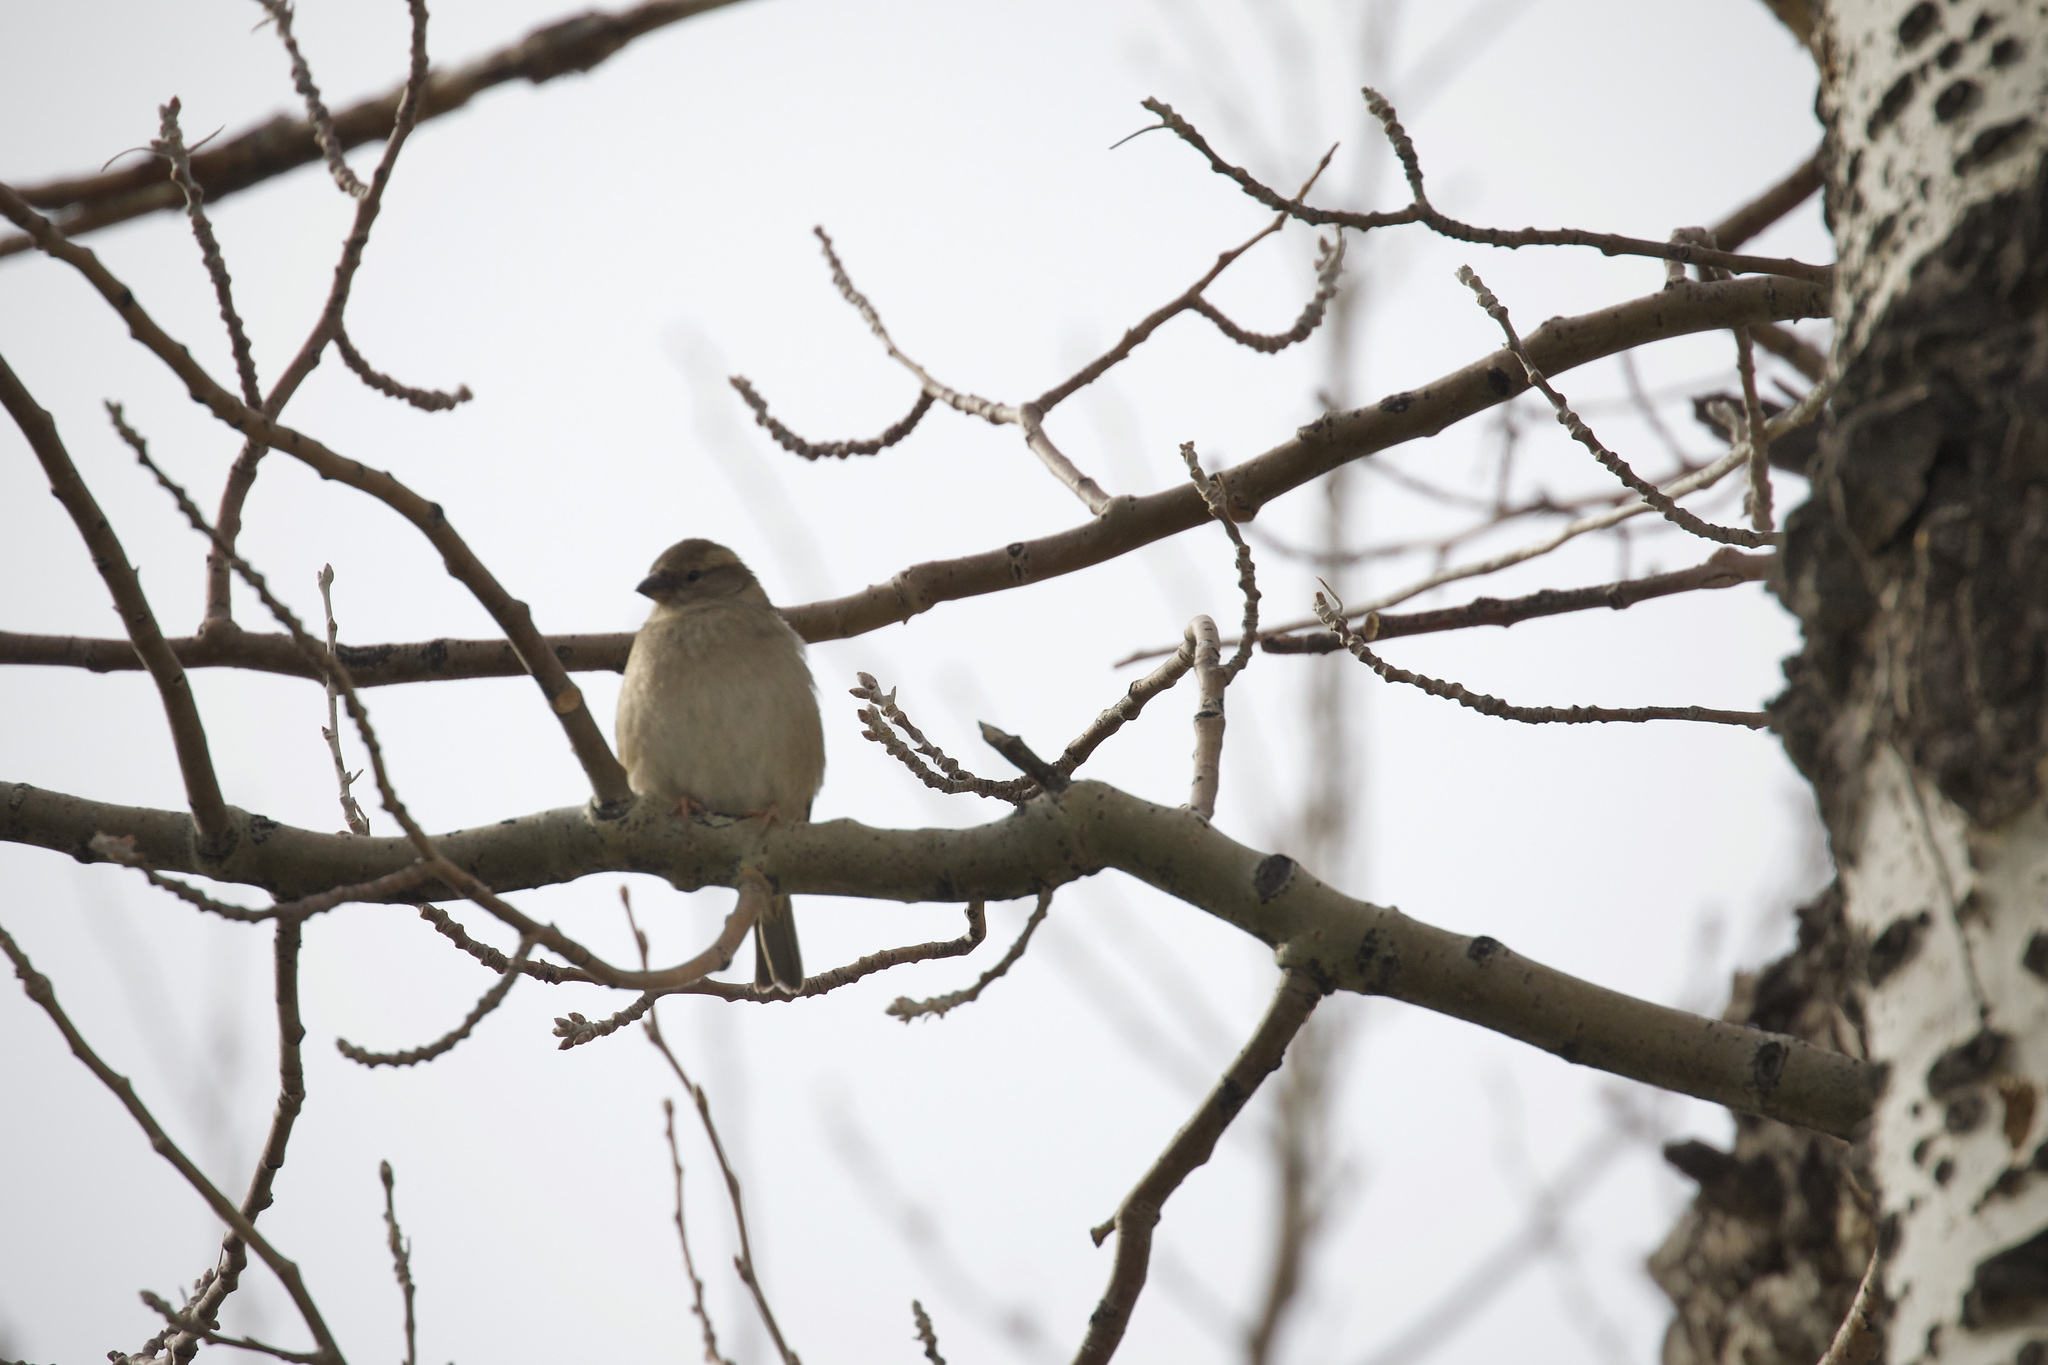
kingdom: Animalia
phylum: Chordata
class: Aves
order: Passeriformes
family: Passeridae
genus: Passer
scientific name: Passer domesticus
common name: House sparrow
